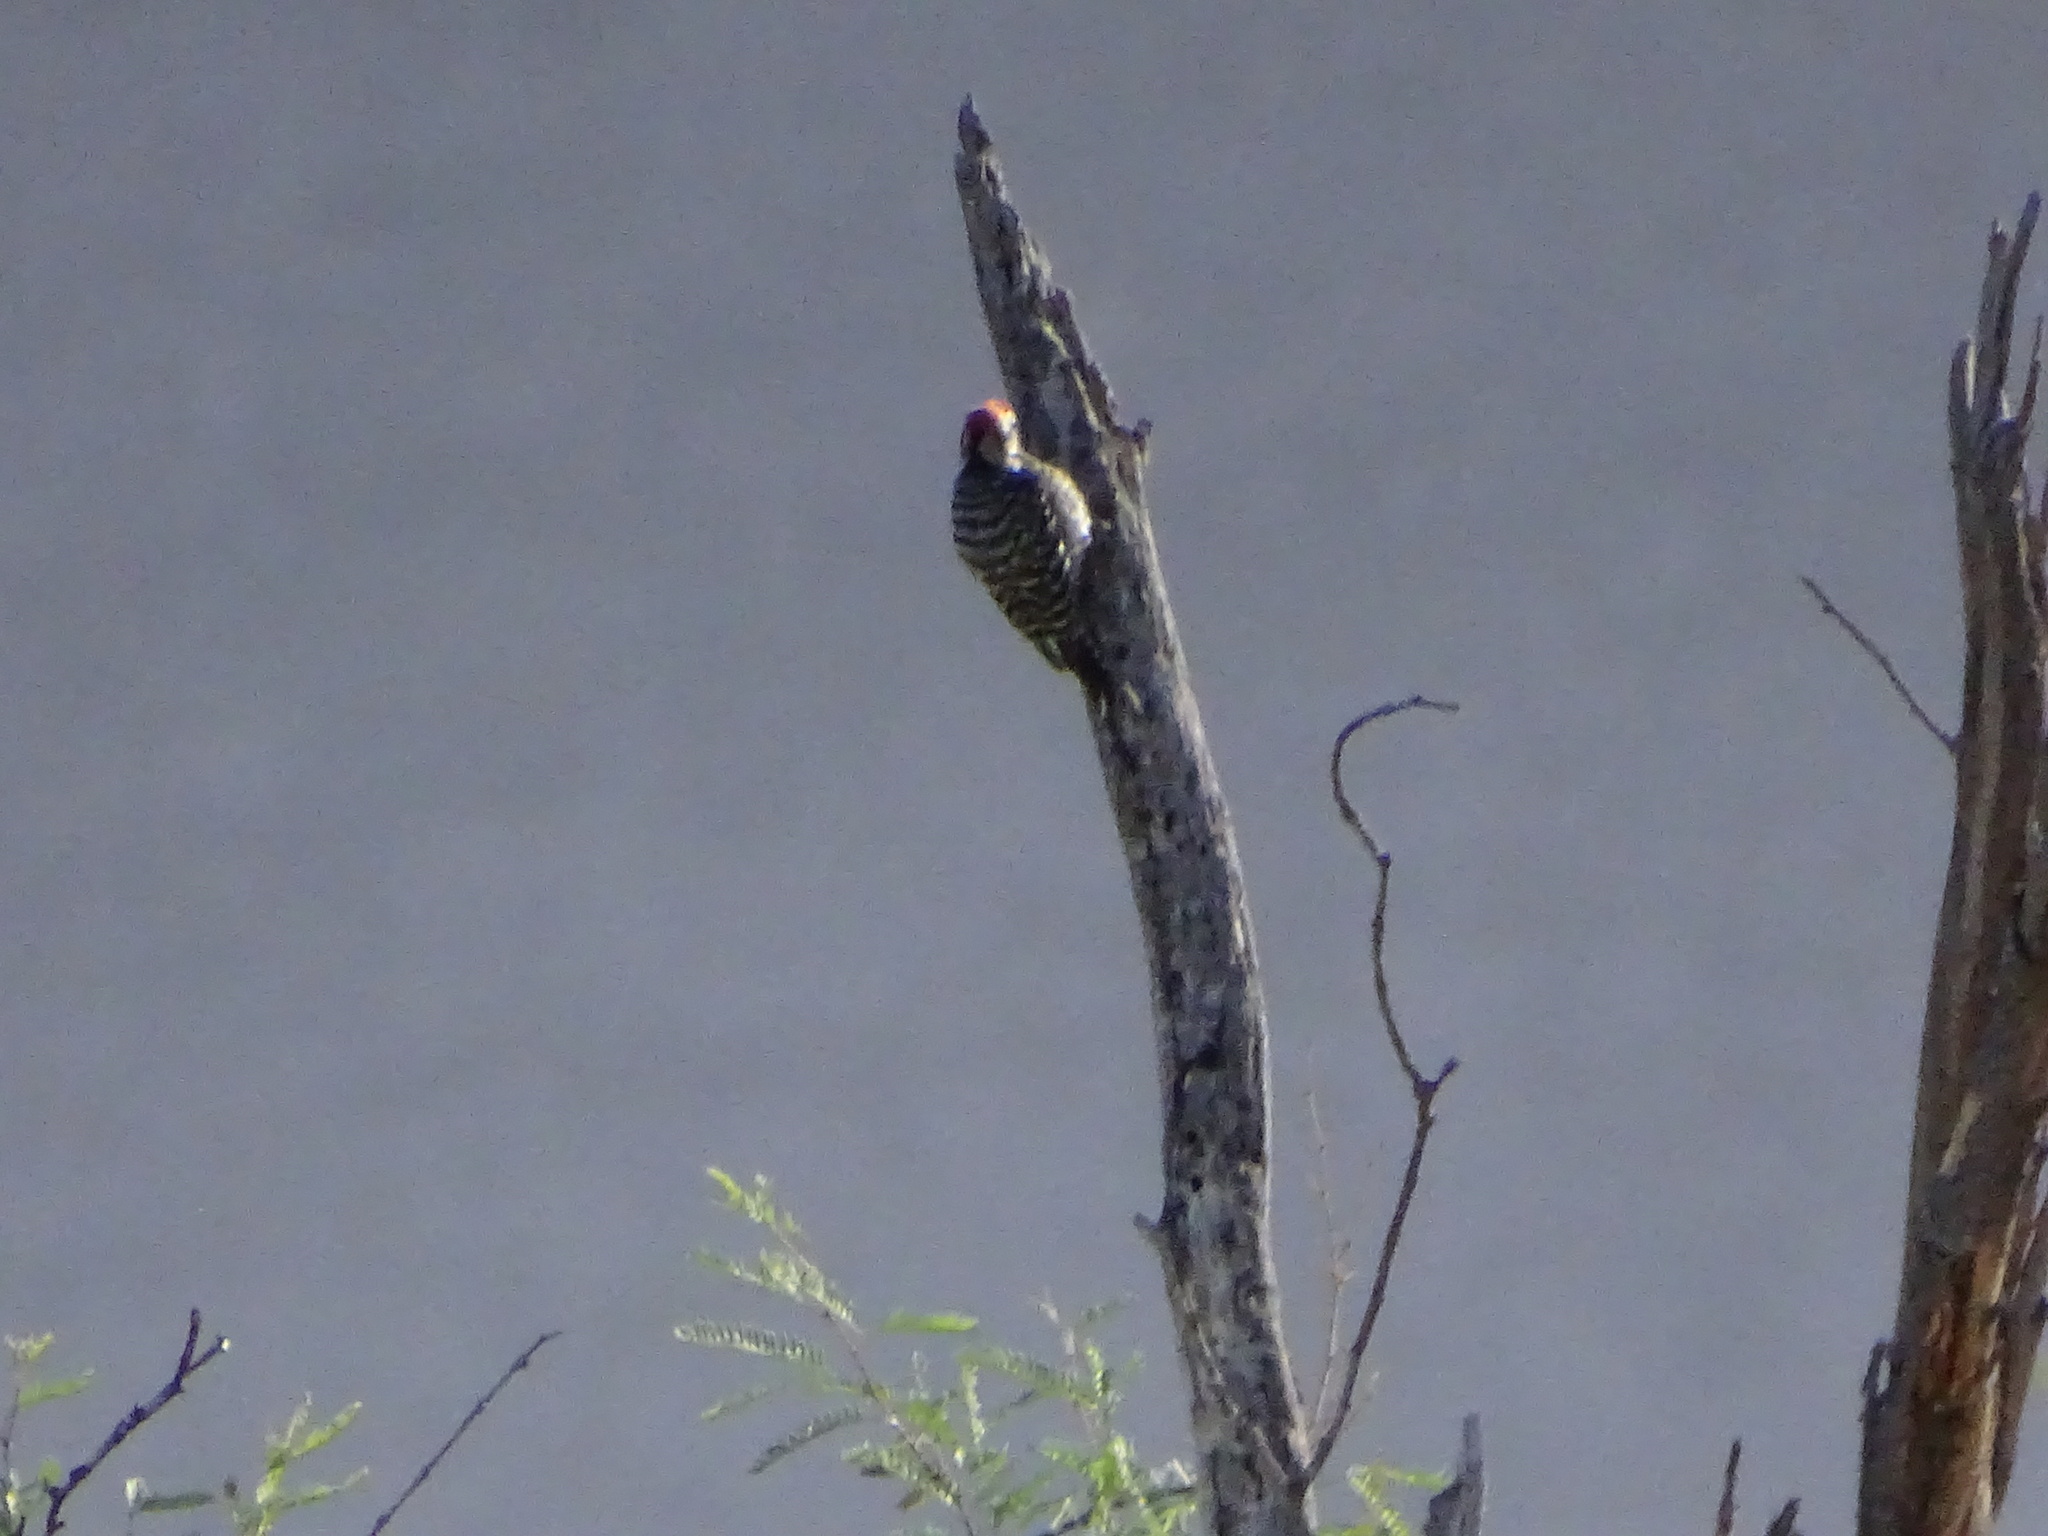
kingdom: Animalia
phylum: Chordata
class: Aves
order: Piciformes
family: Picidae
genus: Dryobates
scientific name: Dryobates scalaris
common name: Ladder-backed woodpecker
